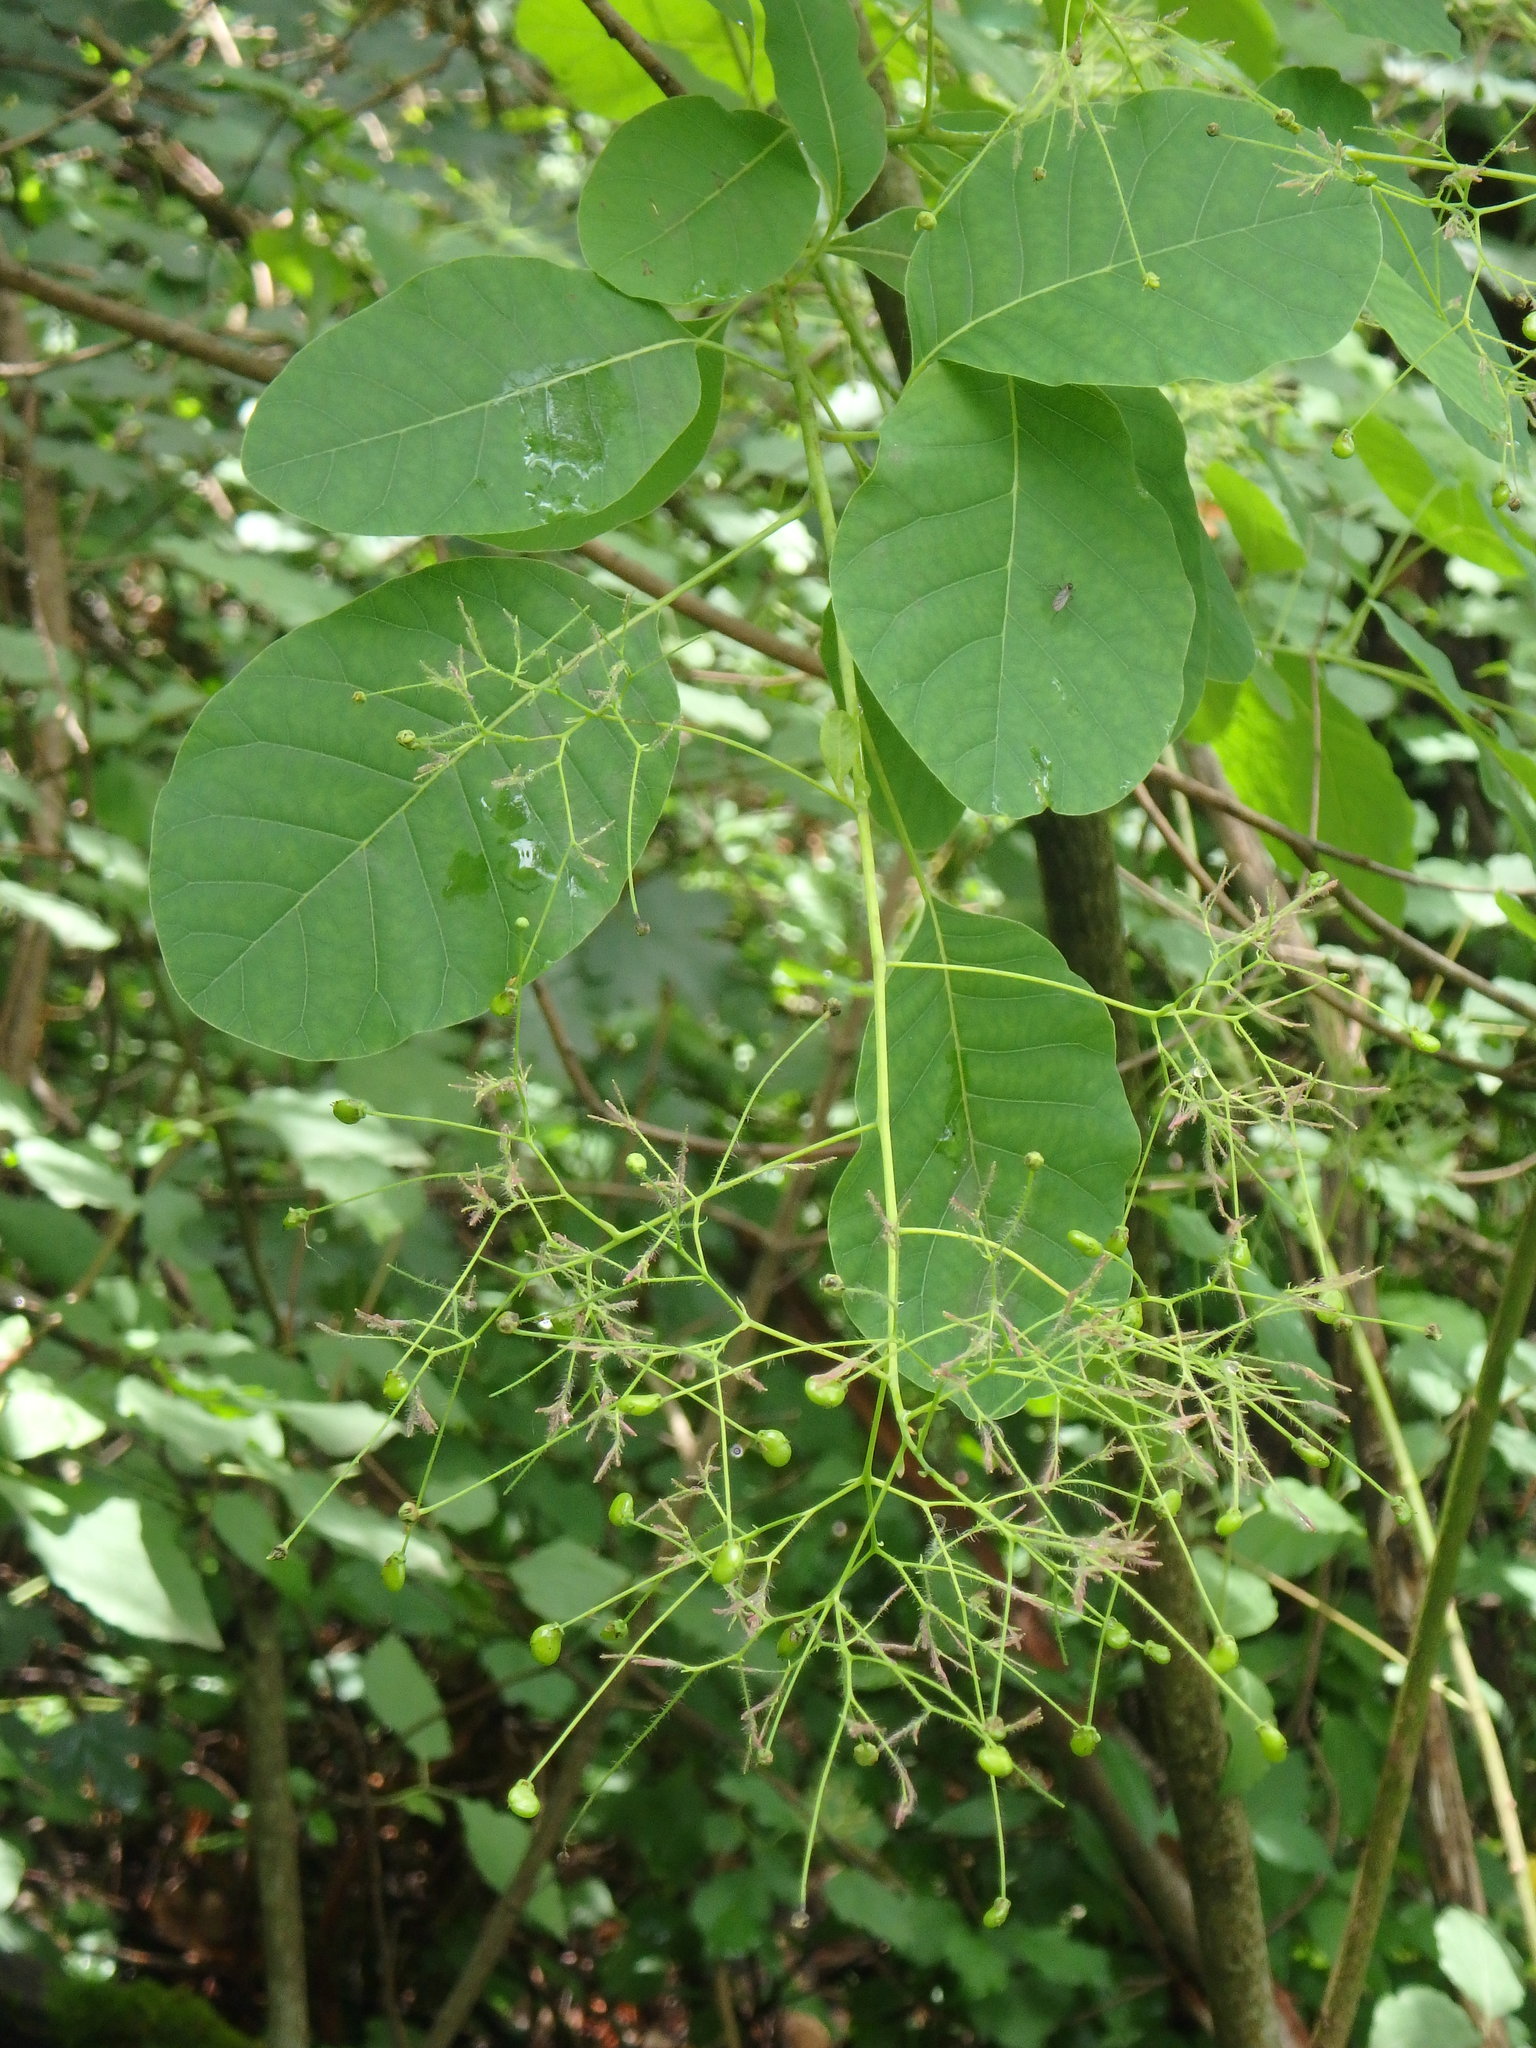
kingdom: Plantae
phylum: Tracheophyta
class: Magnoliopsida
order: Sapindales
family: Anacardiaceae
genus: Cotinus
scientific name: Cotinus coggygria
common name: Smoke-tree
